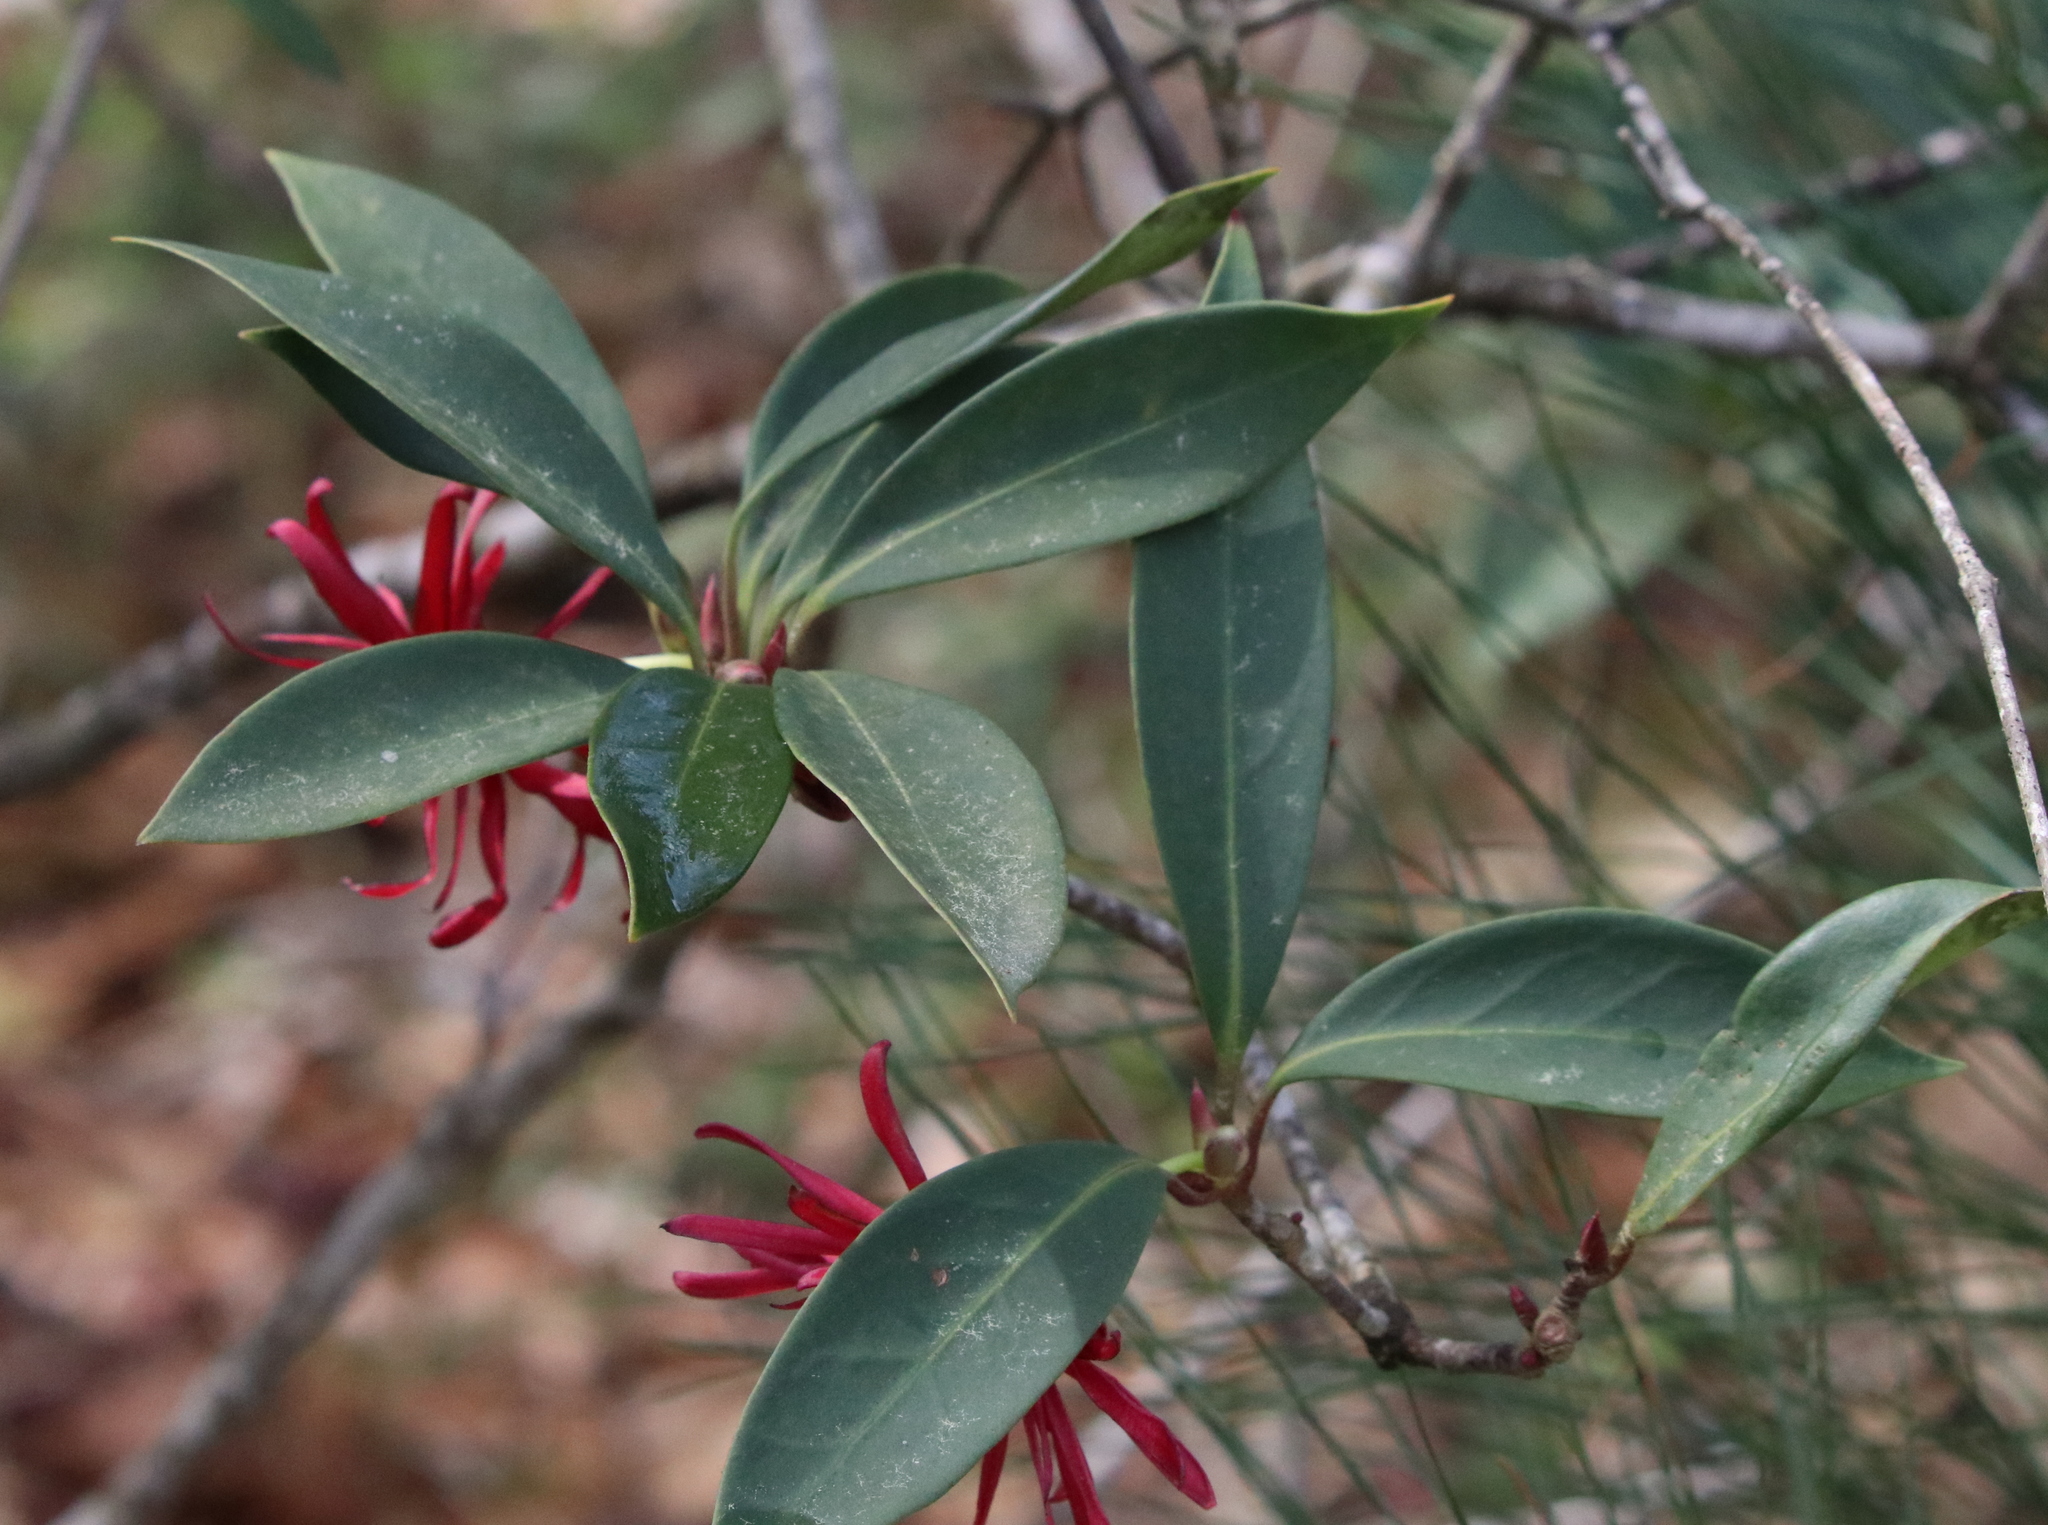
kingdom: Plantae
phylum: Tracheophyta
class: Magnoliopsida
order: Austrobaileyales
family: Schisandraceae
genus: Illicium
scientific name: Illicium floridanum
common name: Florida anisetree
